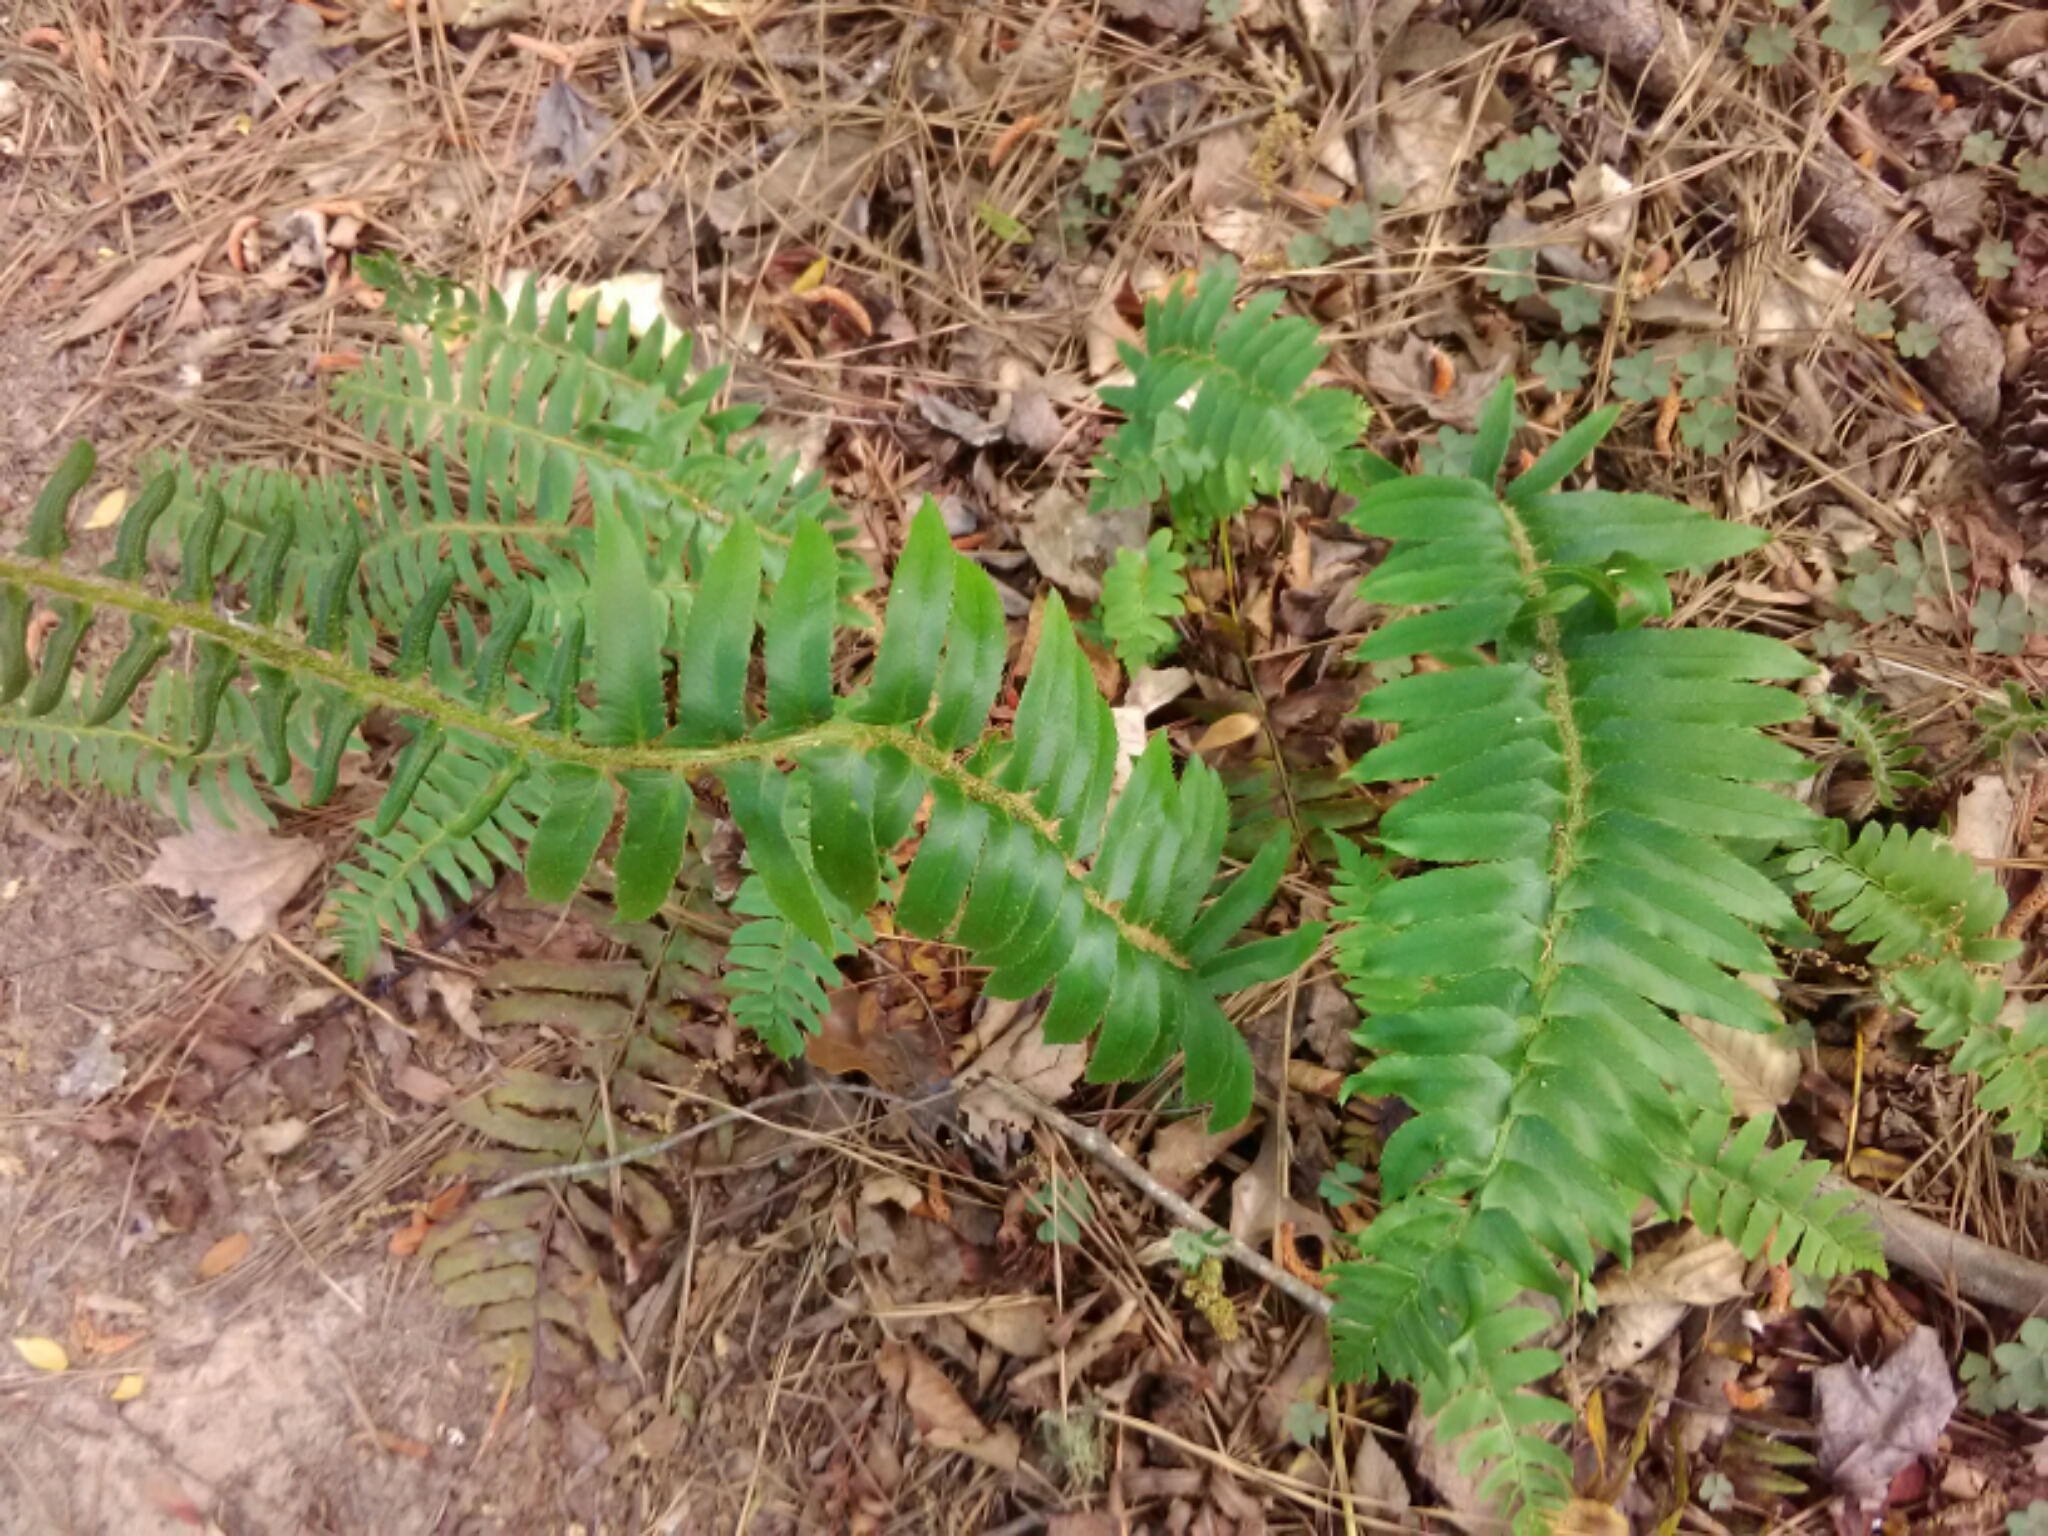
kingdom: Plantae
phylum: Tracheophyta
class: Polypodiopsida
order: Polypodiales
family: Dryopteridaceae
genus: Polystichum
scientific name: Polystichum acrostichoides
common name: Christmas fern
